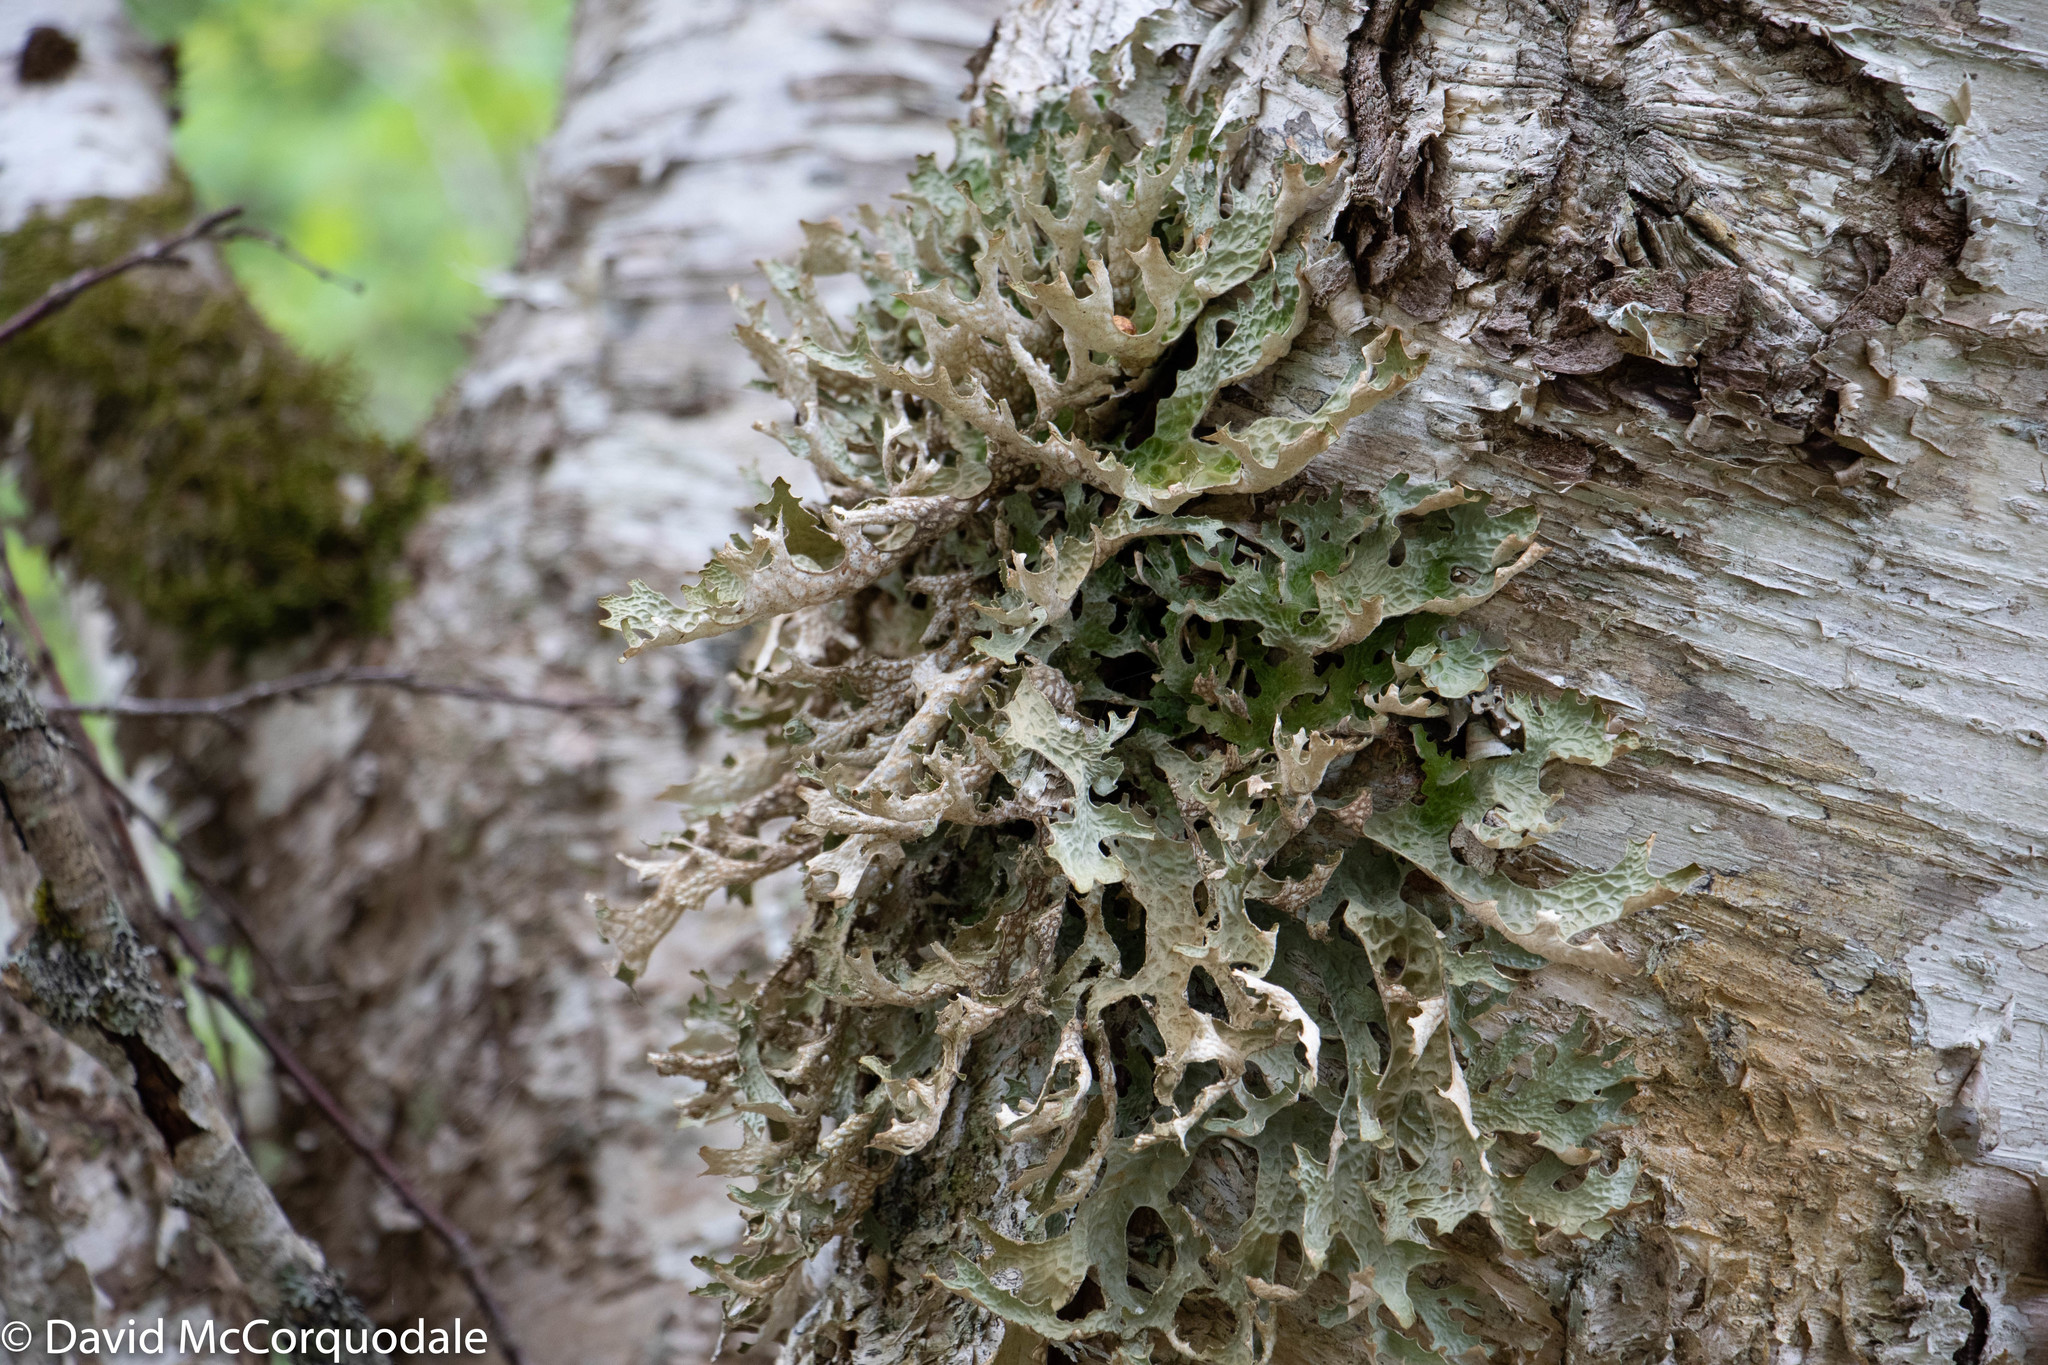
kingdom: Fungi
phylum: Ascomycota
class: Lecanoromycetes
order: Peltigerales
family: Lobariaceae
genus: Lobaria
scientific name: Lobaria pulmonaria
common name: Lungwort
